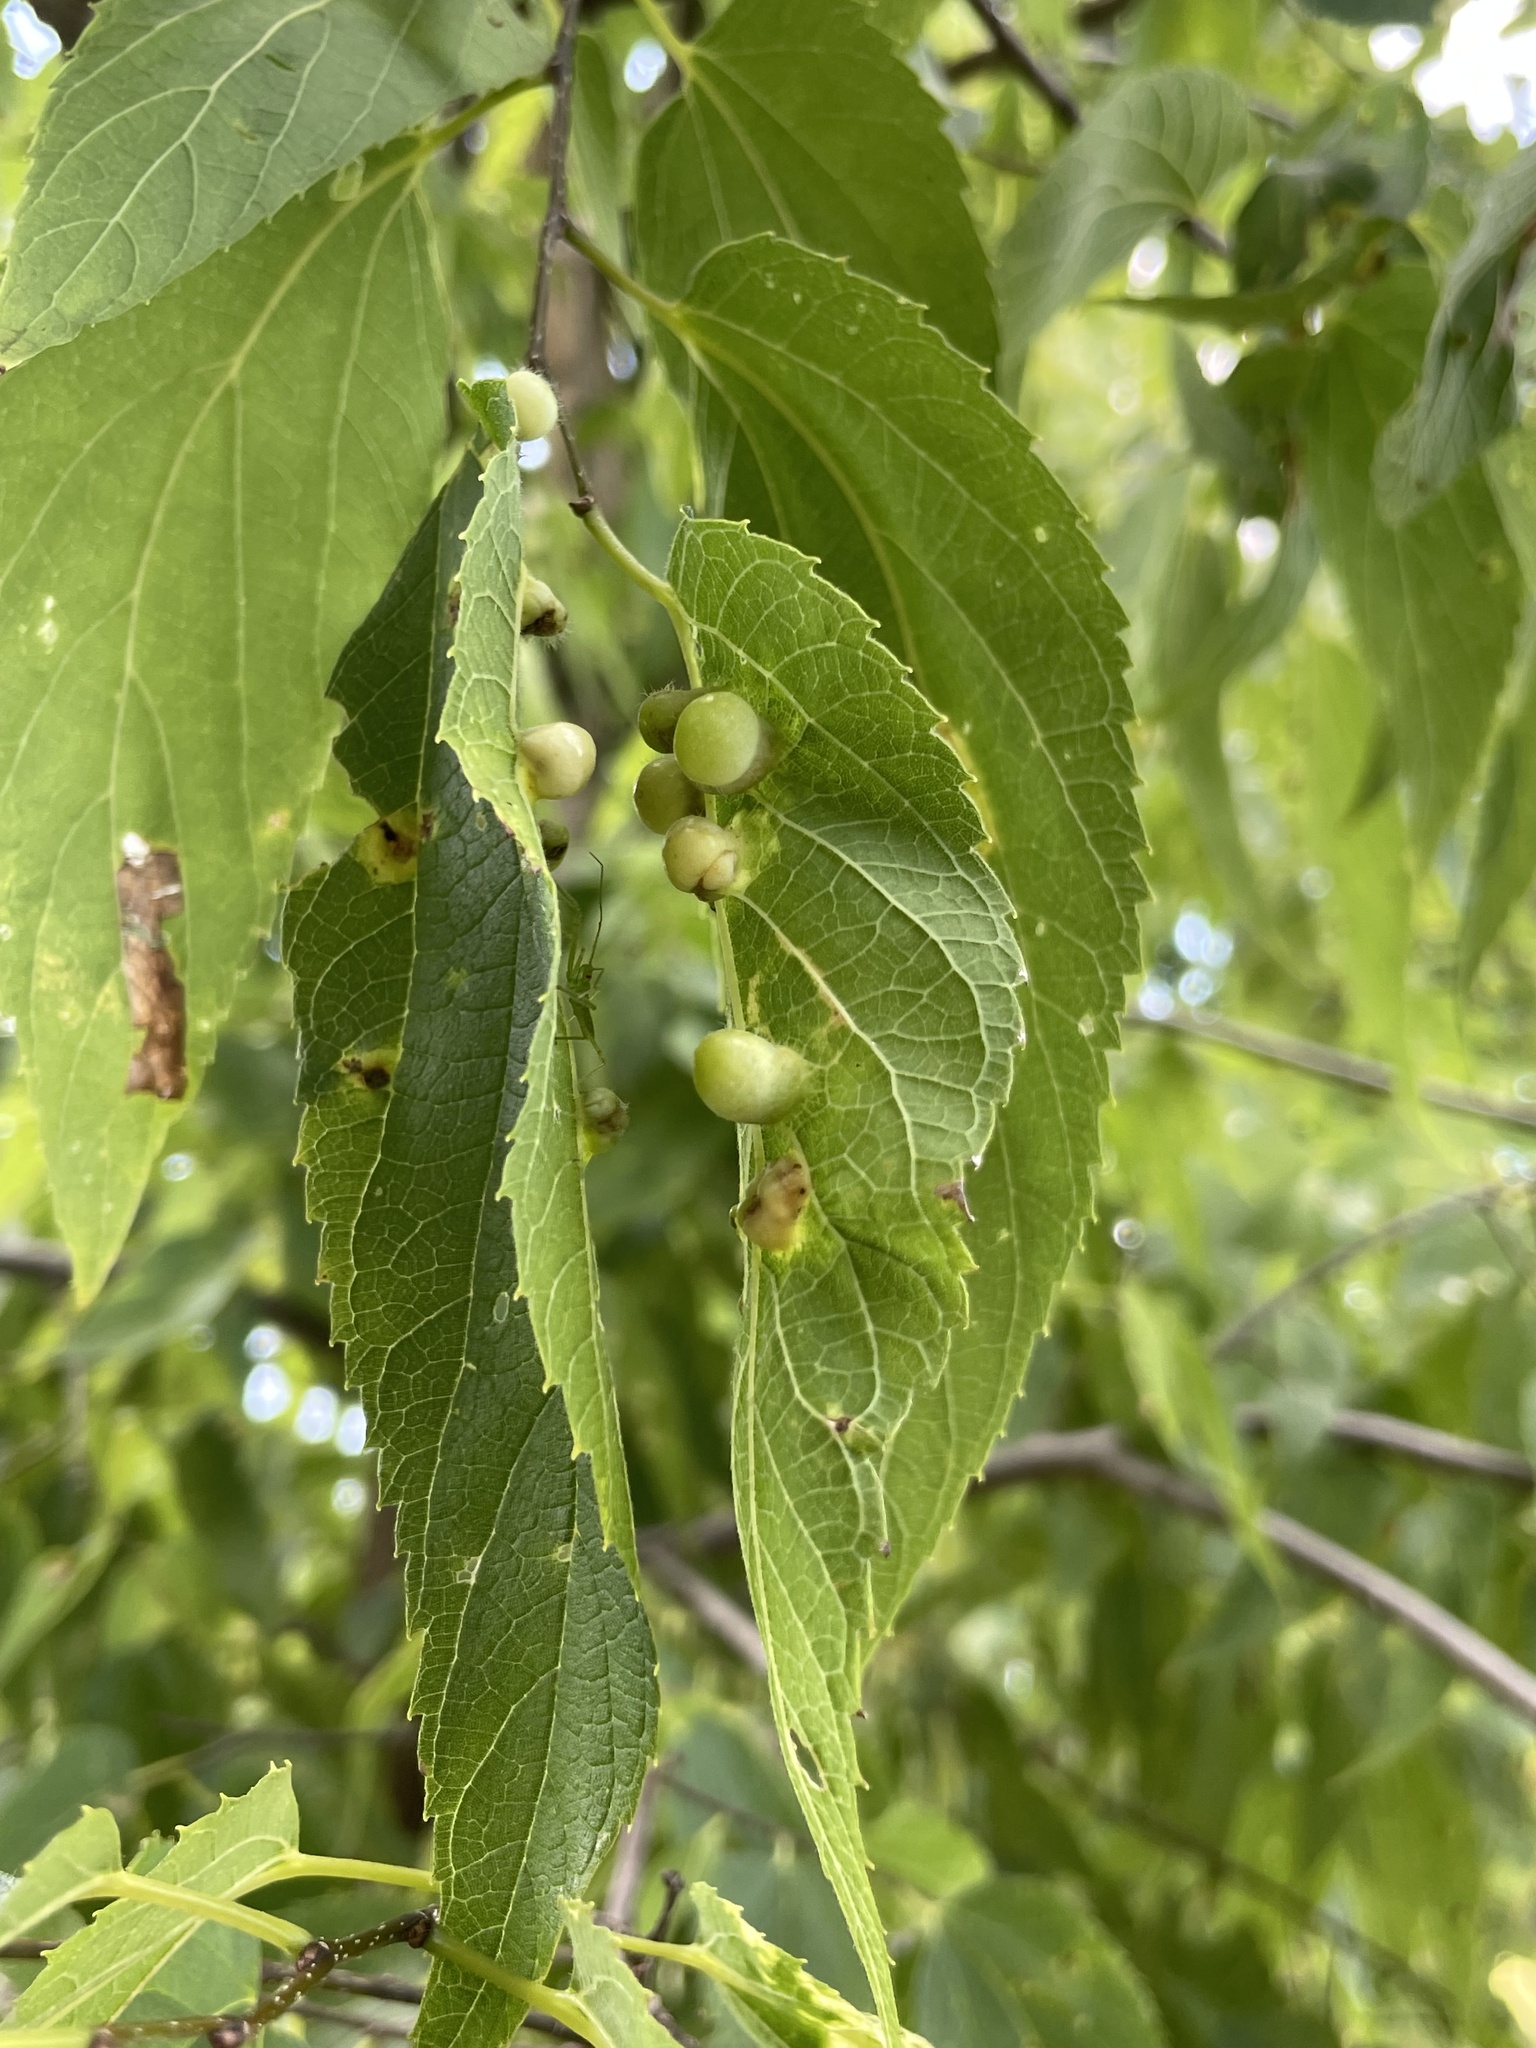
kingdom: Animalia
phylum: Arthropoda
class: Insecta
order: Hemiptera
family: Aphalaridae
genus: Pachypsylla
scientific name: Pachypsylla celtidismamma
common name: Hackberry nipplegall psyllid
